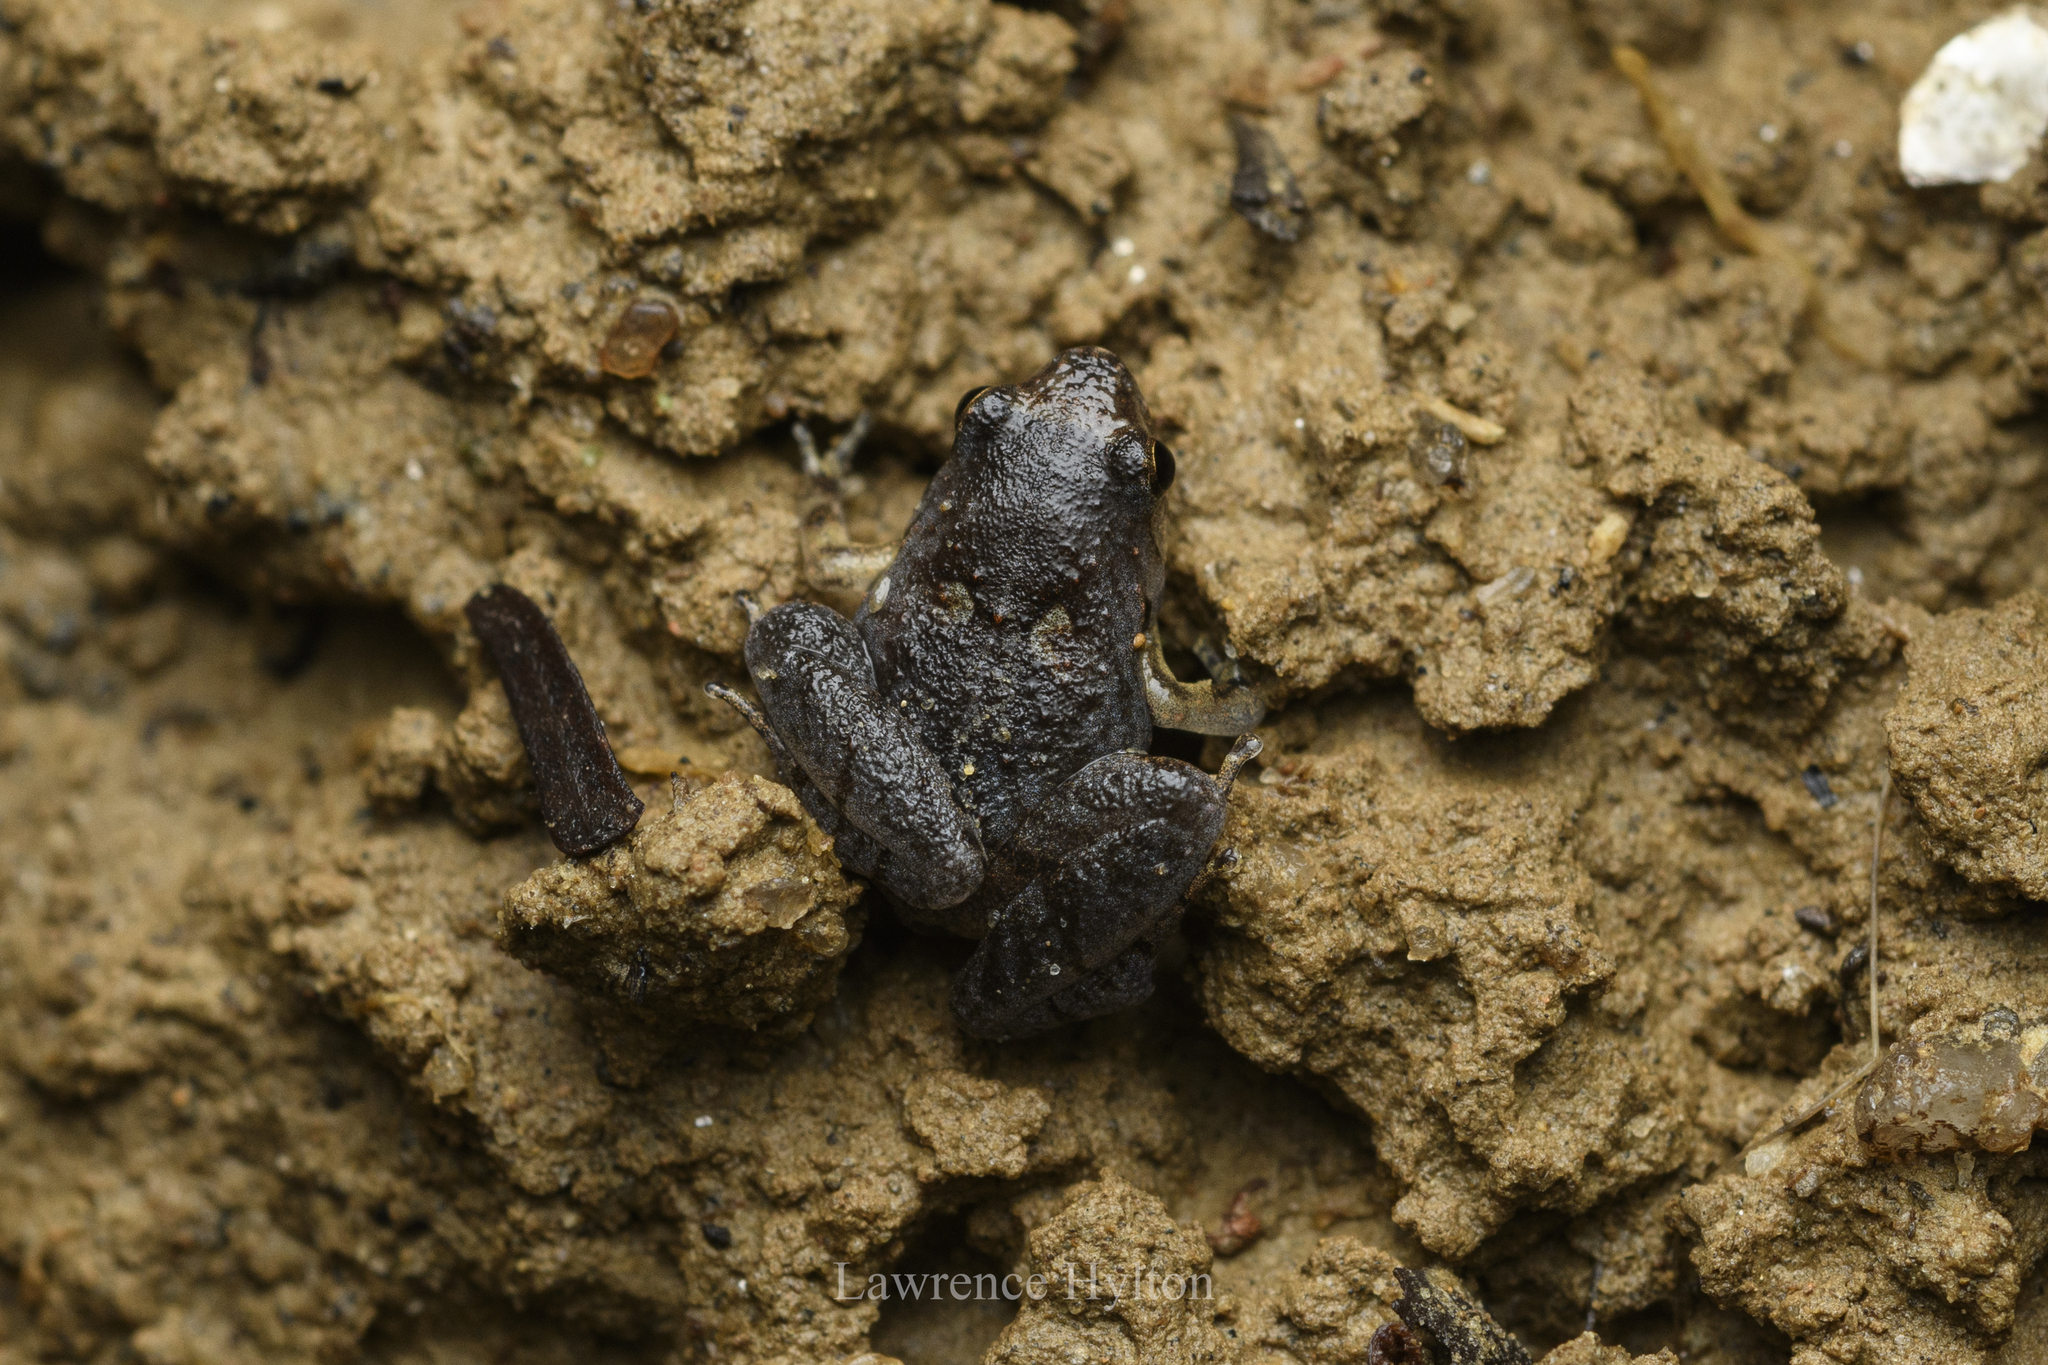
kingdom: Animalia
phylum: Chordata
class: Amphibia
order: Anura
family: Microhylidae
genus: Microhyla
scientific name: Microhyla tetrix
